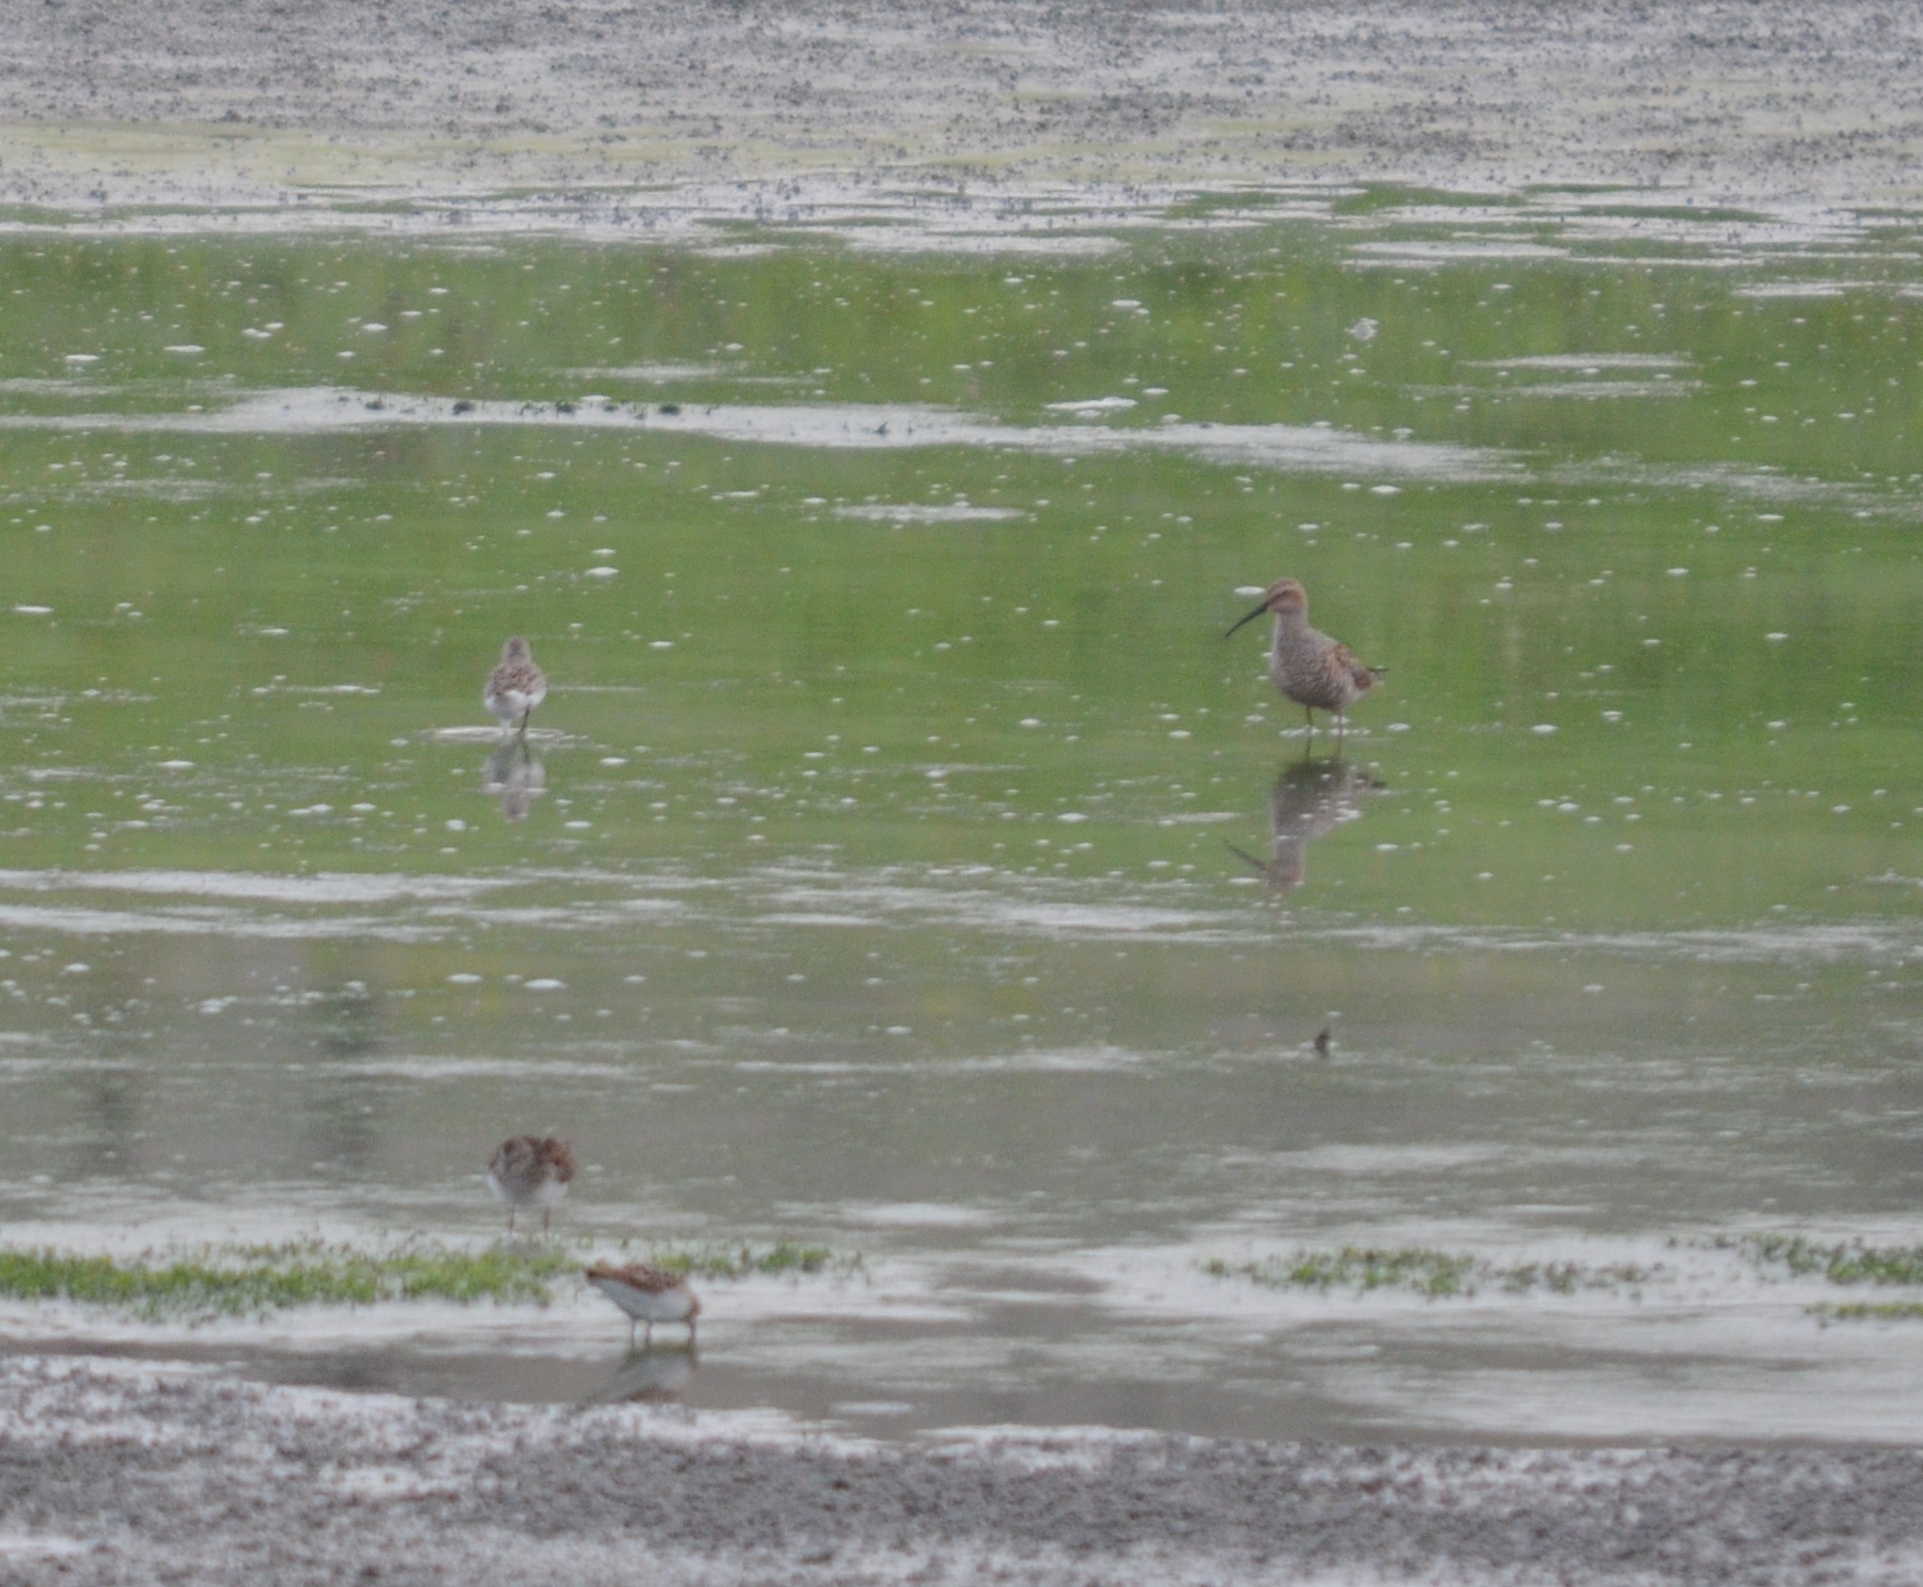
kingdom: Animalia
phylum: Chordata
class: Aves
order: Charadriiformes
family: Scolopacidae
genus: Calidris
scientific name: Calidris himantopus
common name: Stilt sandpiper
